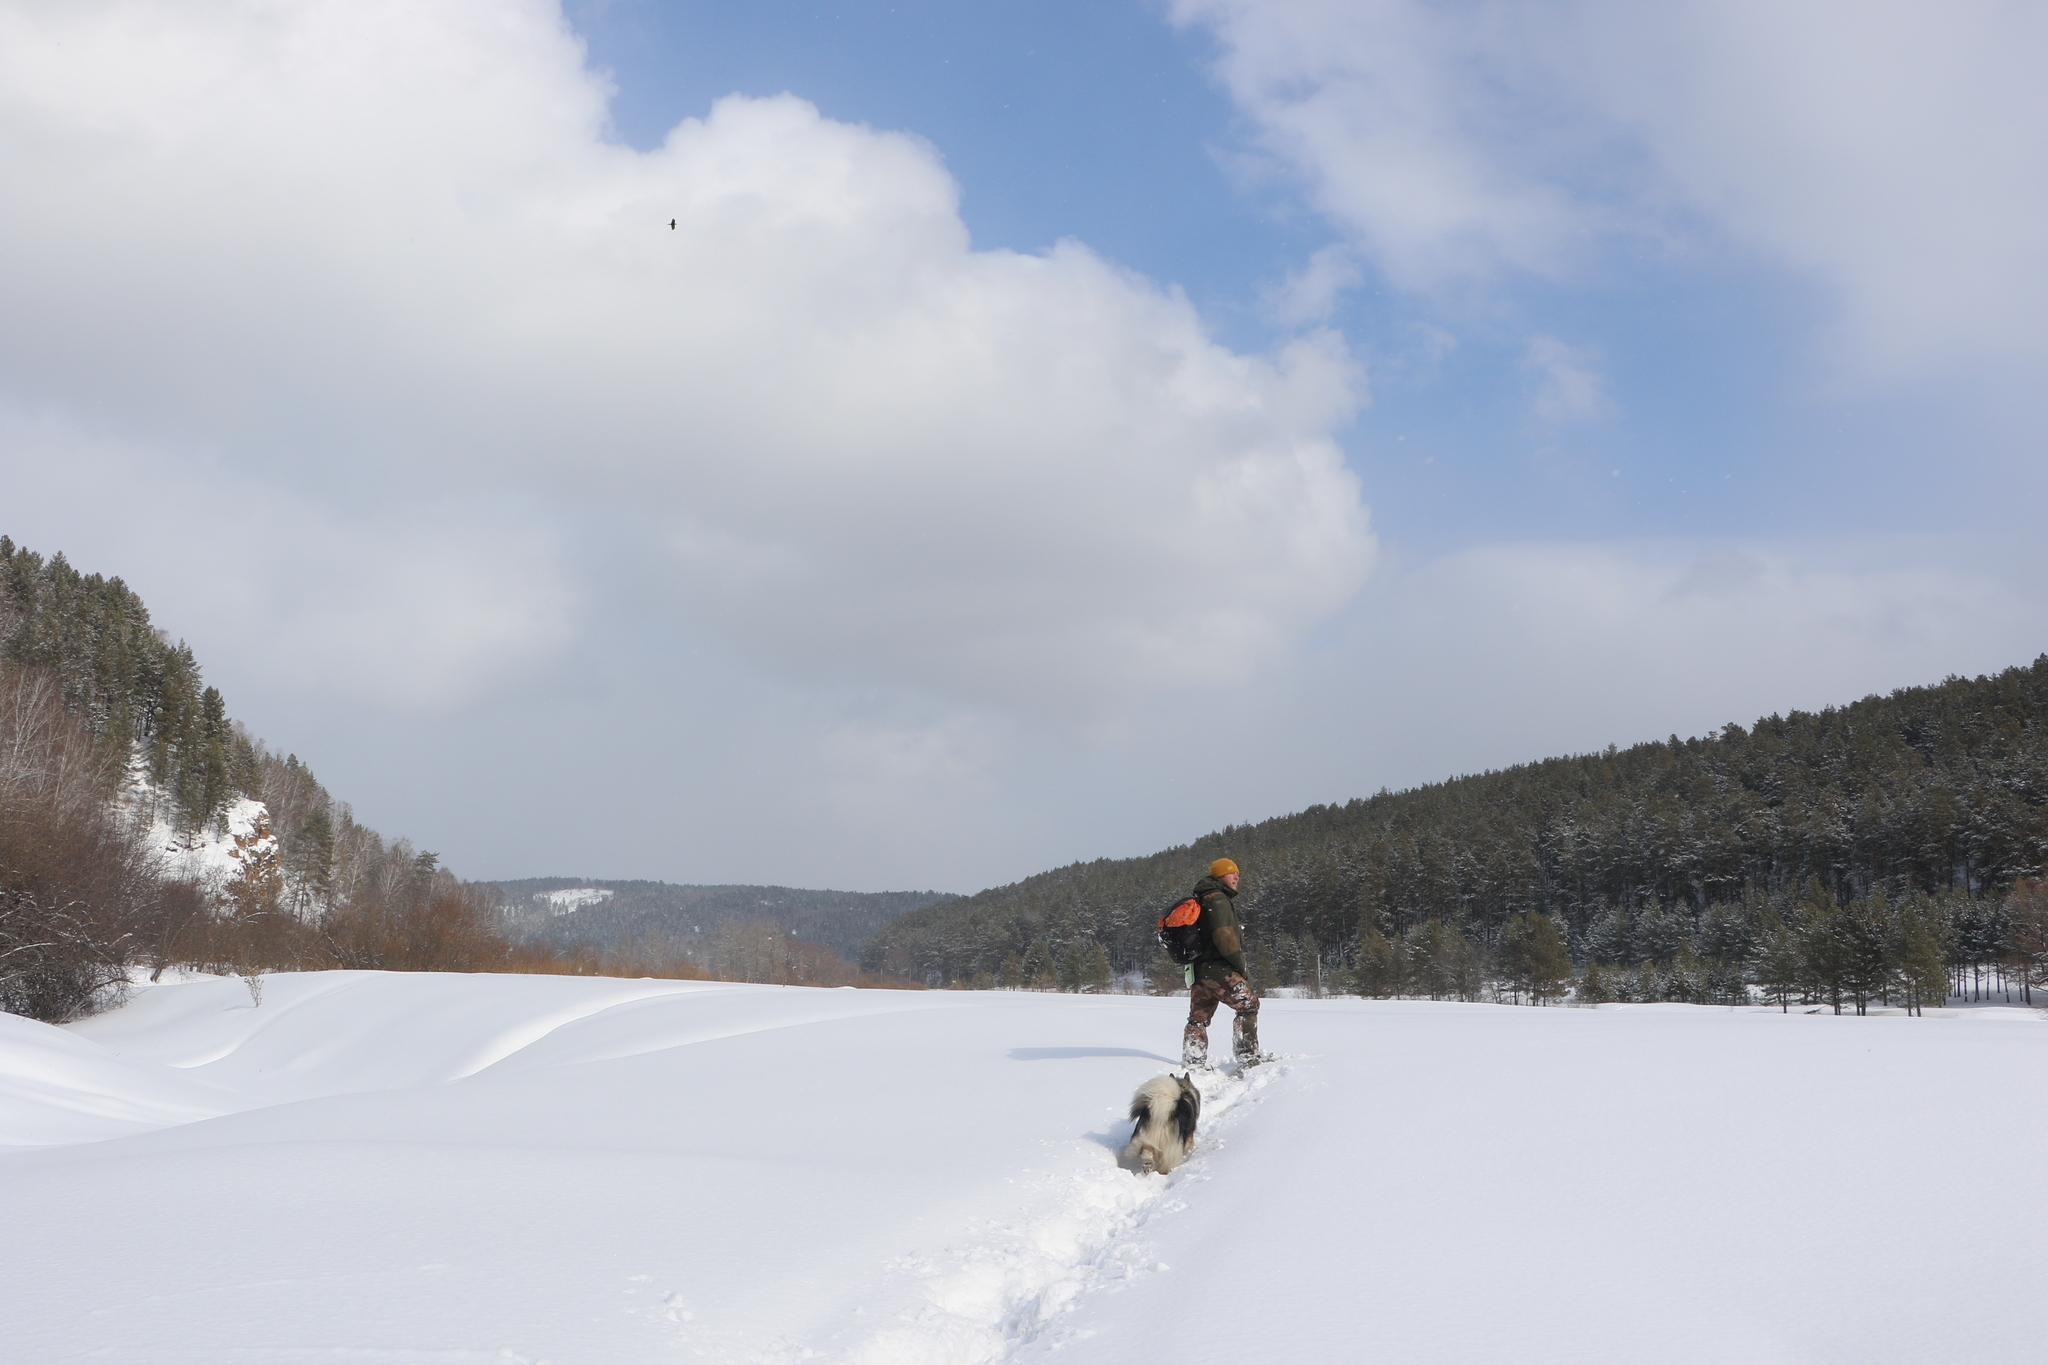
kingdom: Animalia
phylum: Chordata
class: Aves
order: Passeriformes
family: Corvidae
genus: Corvus
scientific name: Corvus corax
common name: Common raven
